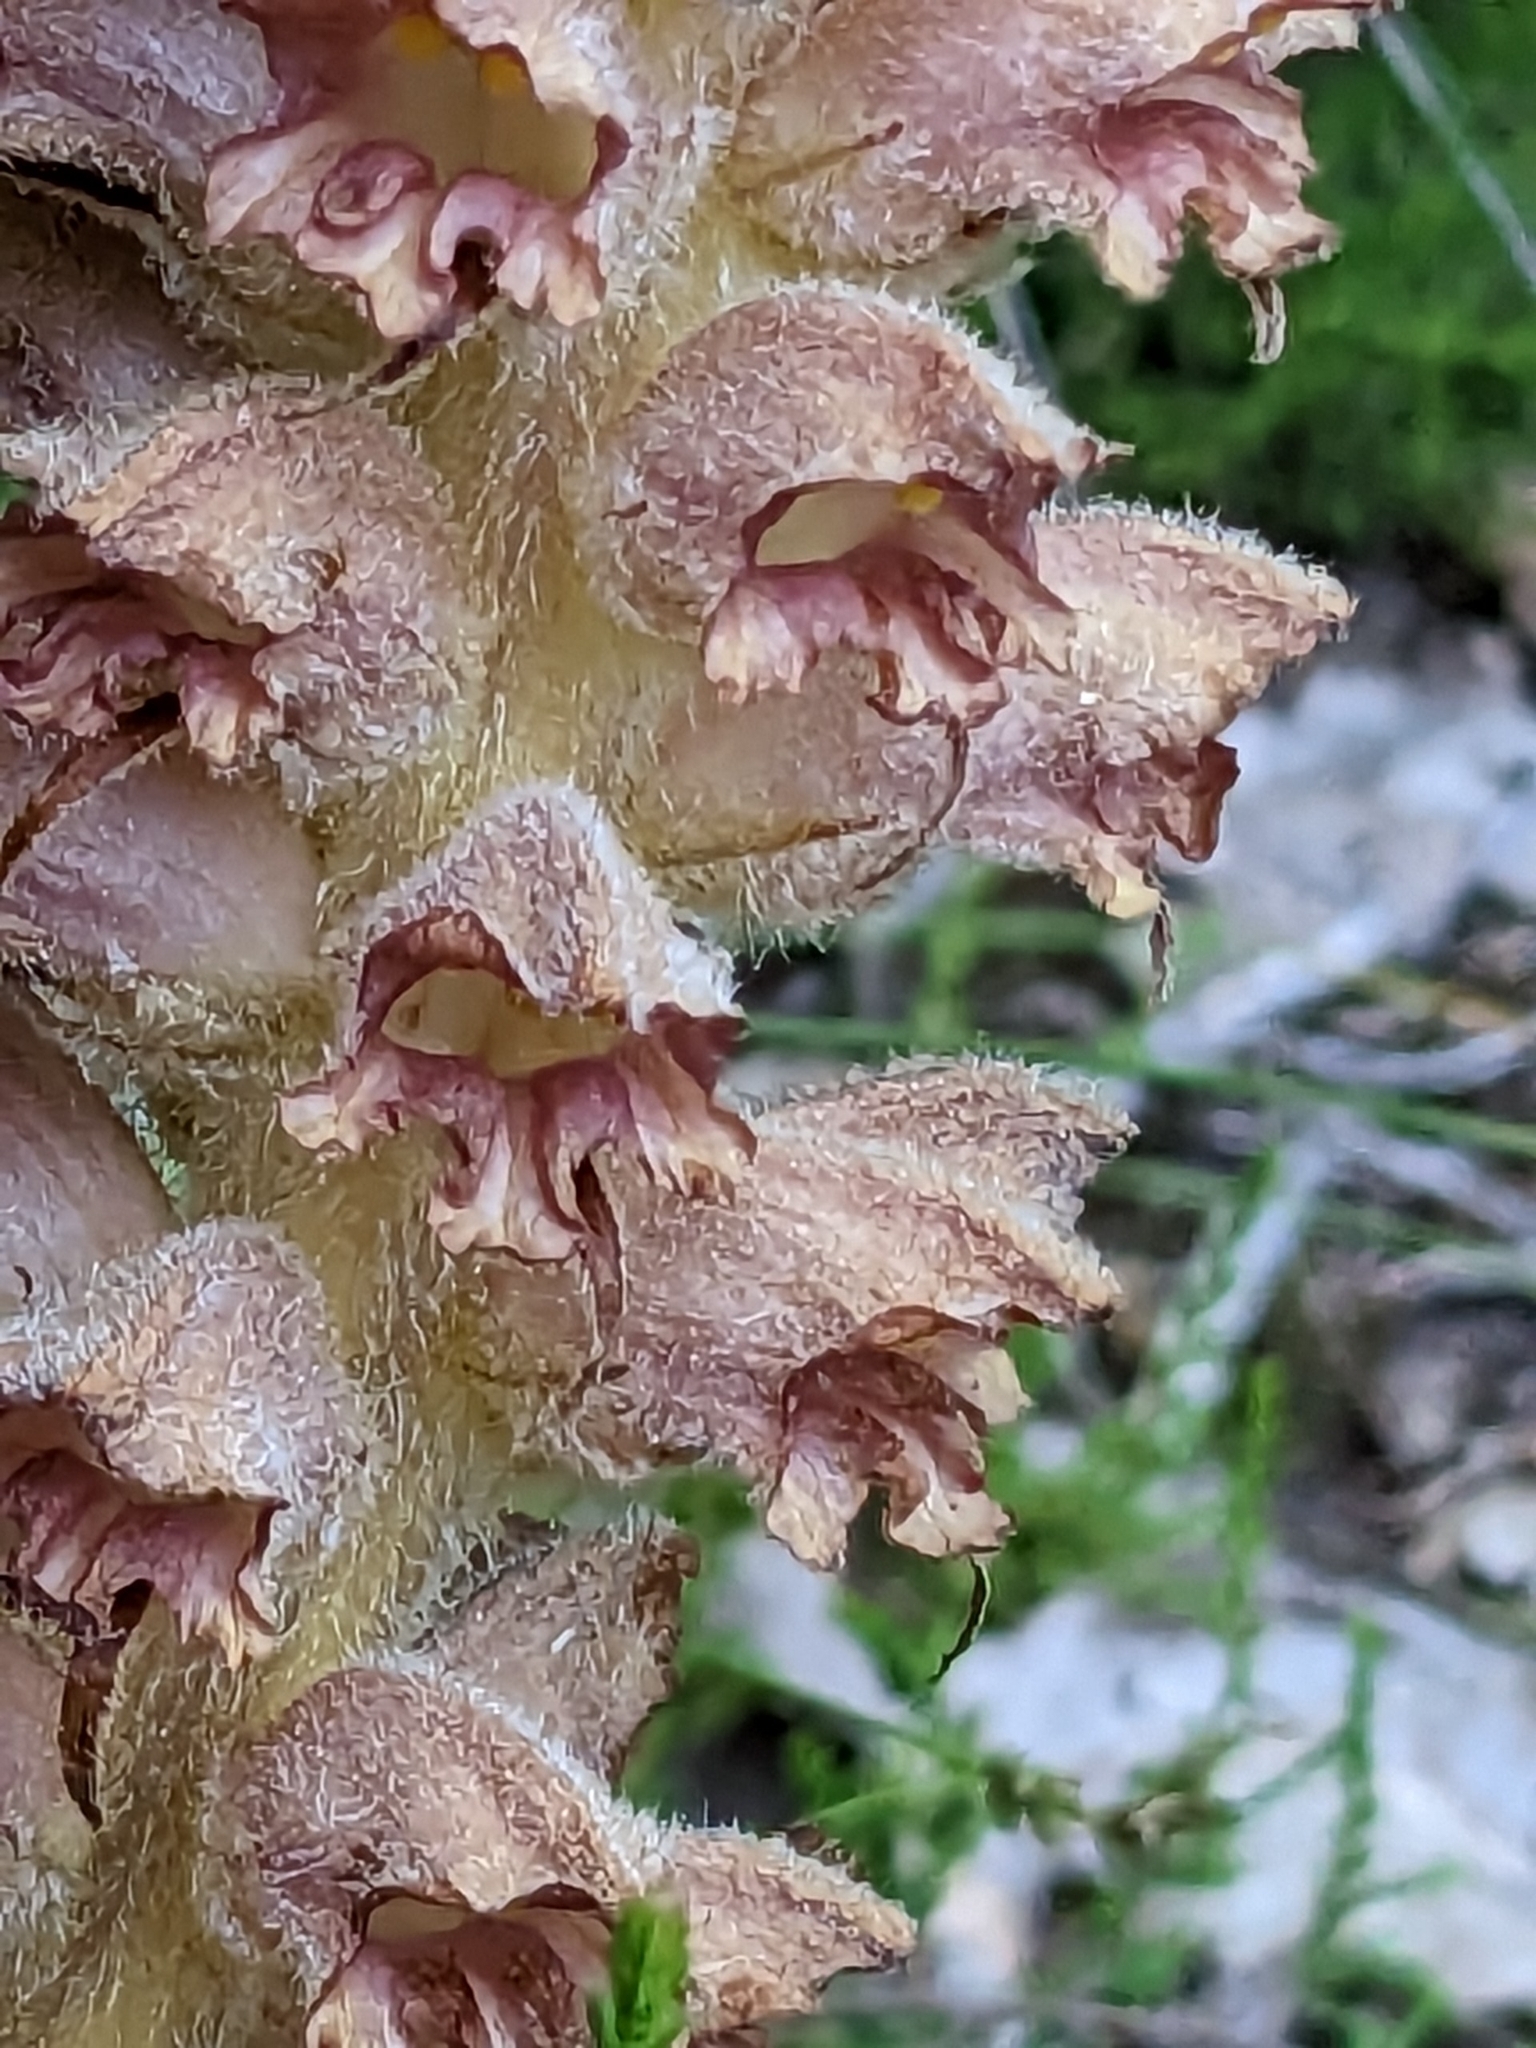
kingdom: Plantae
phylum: Tracheophyta
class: Magnoliopsida
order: Lamiales
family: Orobanchaceae
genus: Orobanche
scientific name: Orobanche rapum-genistae
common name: Greater broomrape
